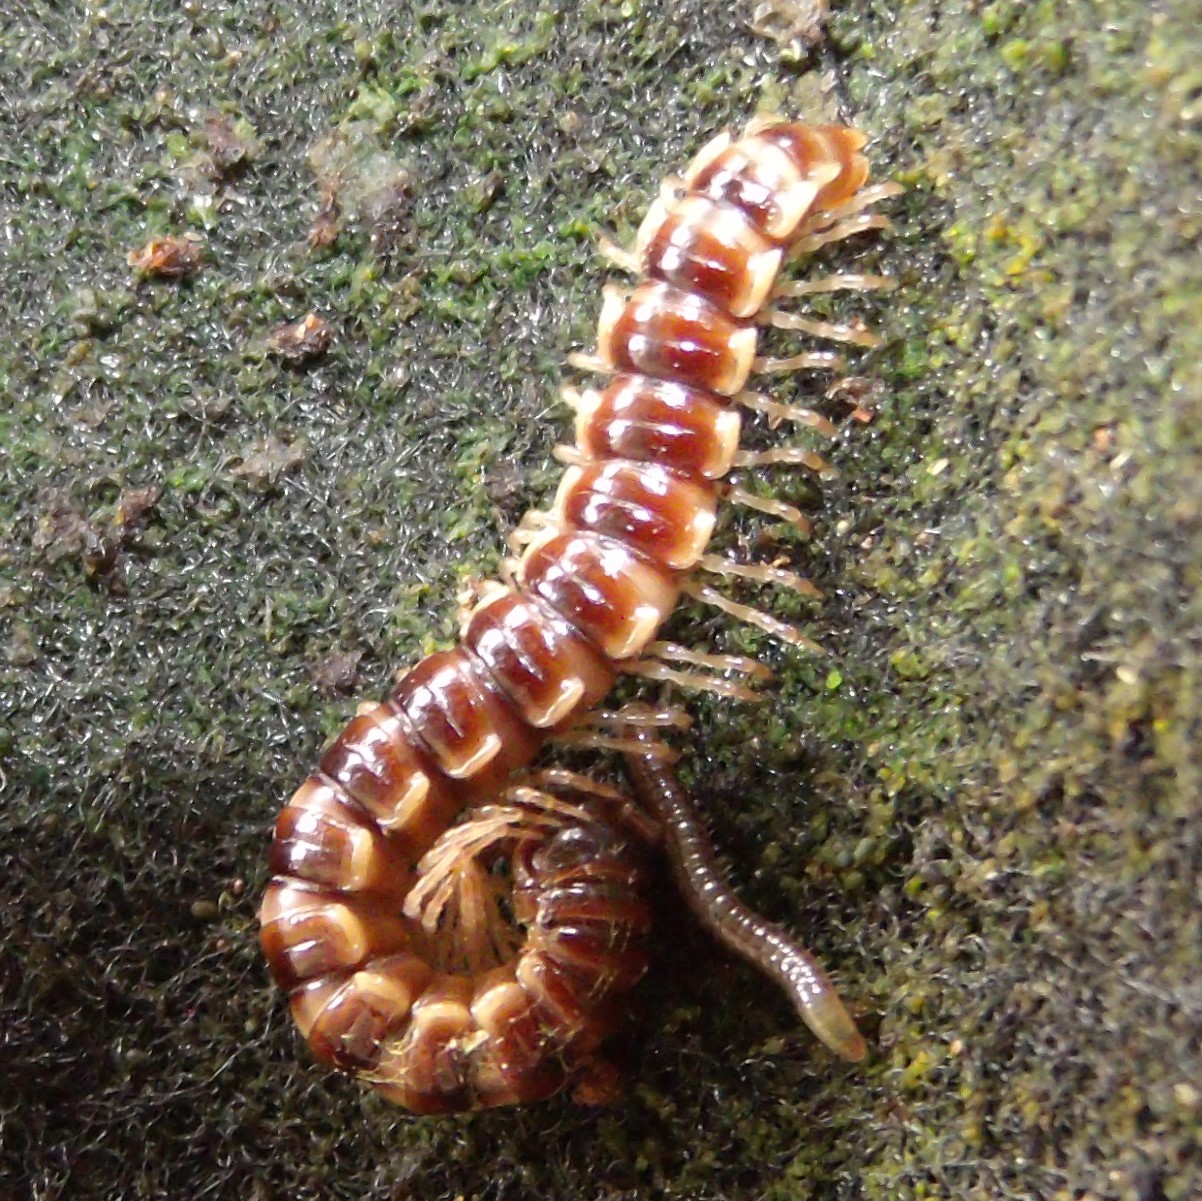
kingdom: Animalia
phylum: Arthropoda
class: Diplopoda
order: Polydesmida
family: Paradoxosomatidae
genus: Oxidus
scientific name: Oxidus gracilis
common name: Greenhouse millipede
